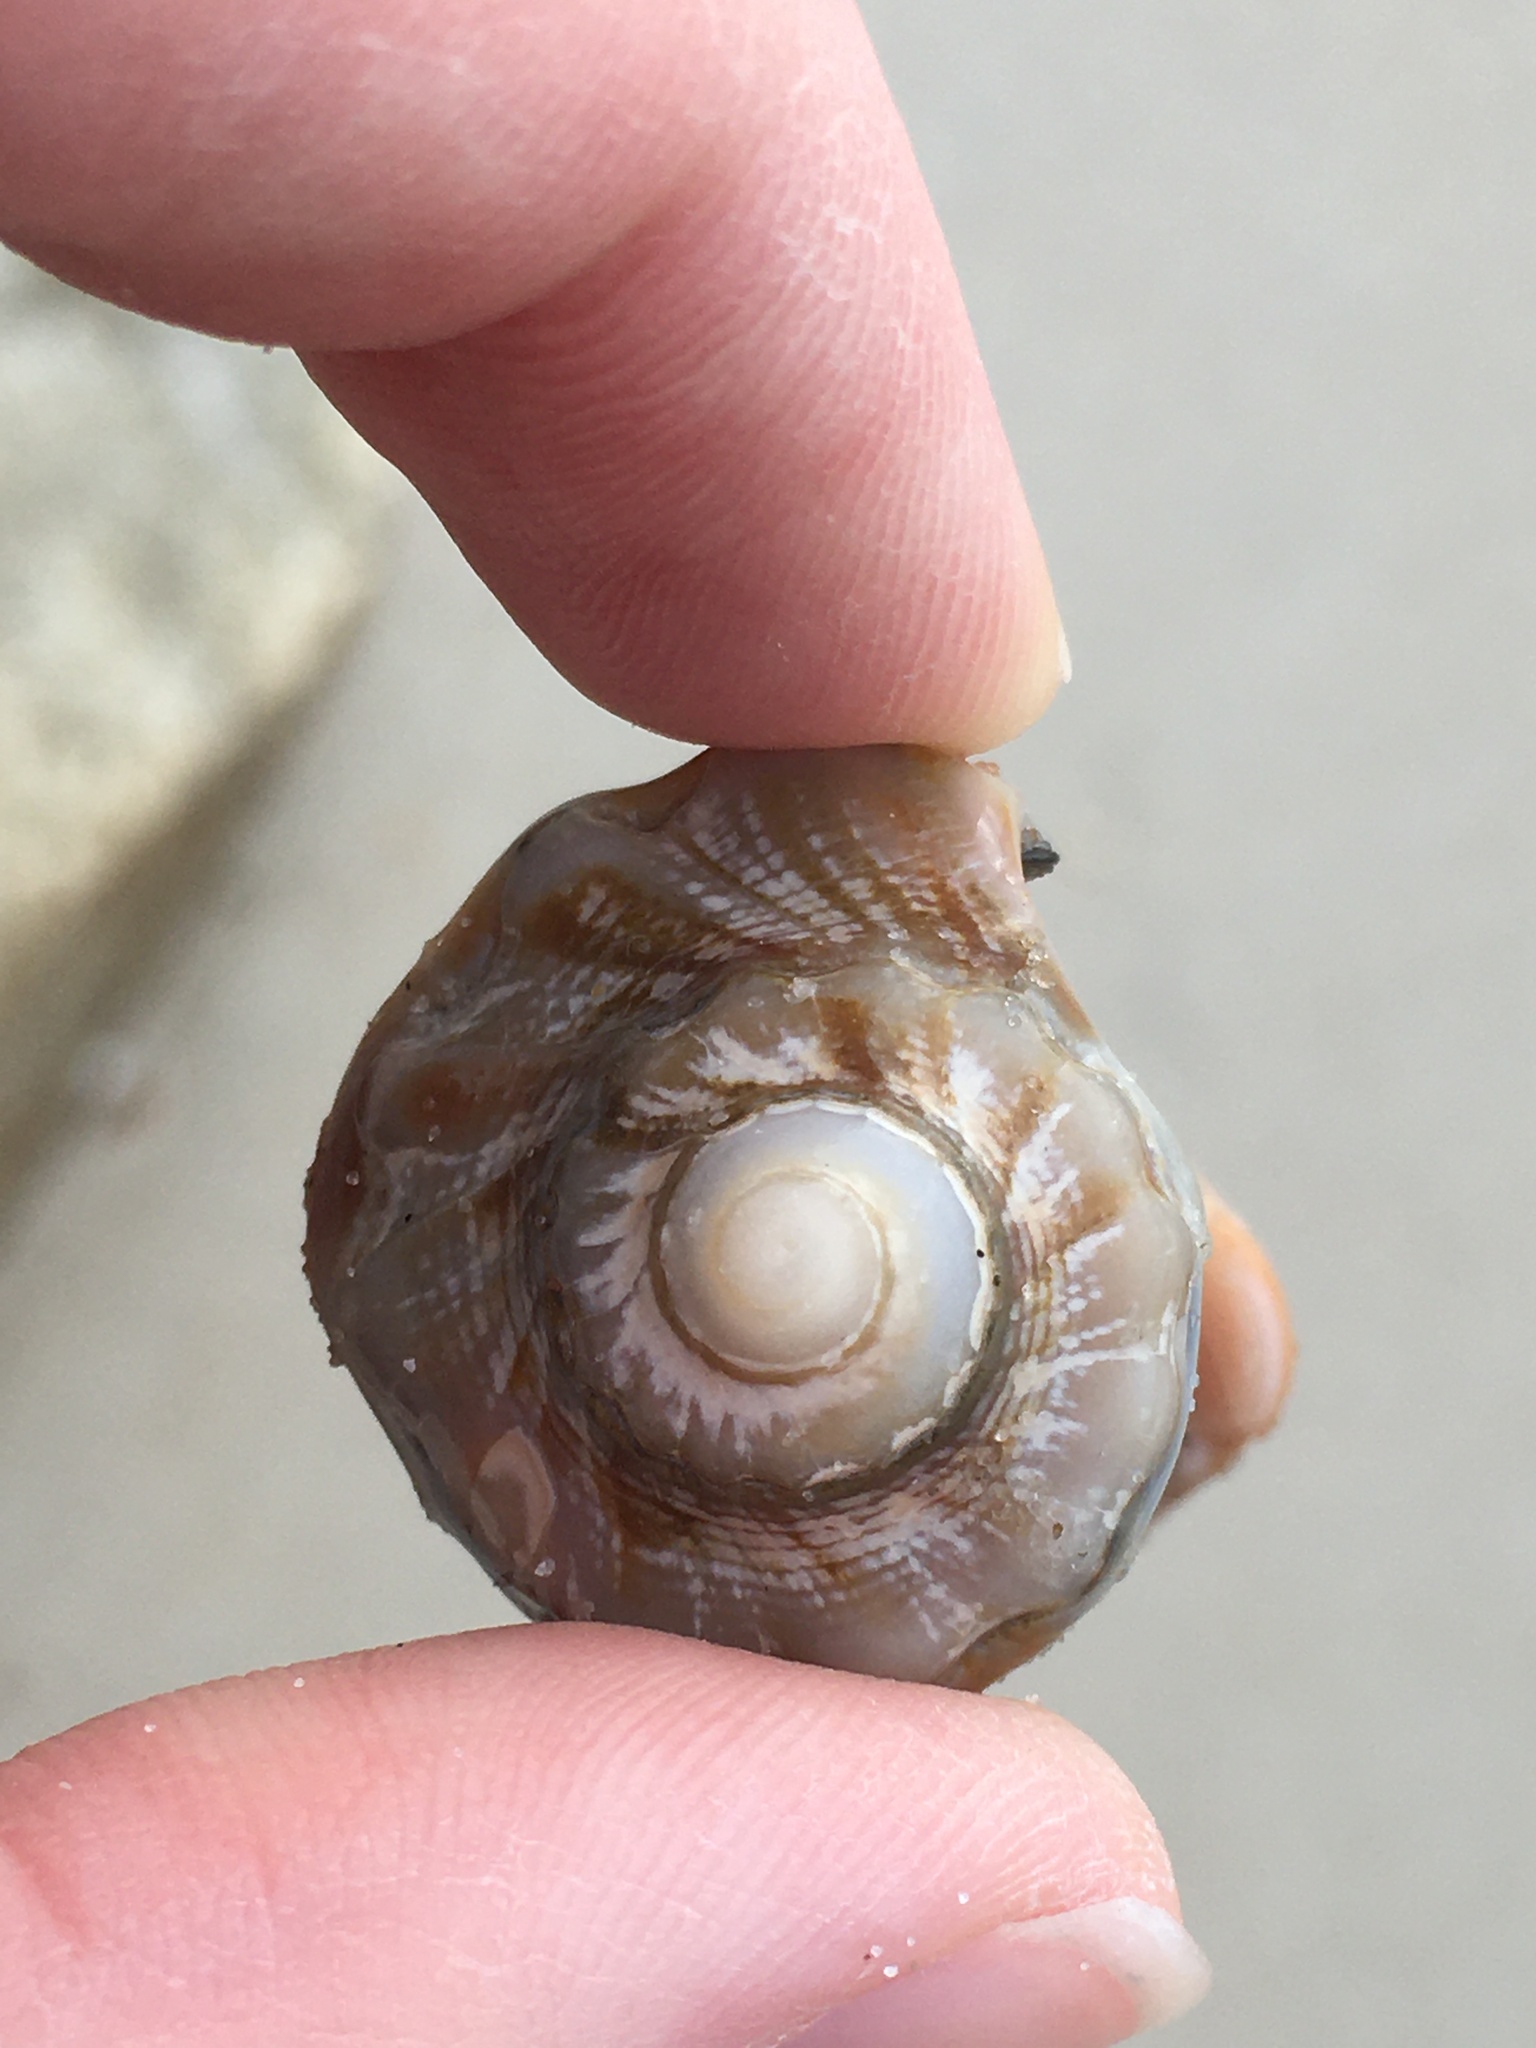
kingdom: Animalia
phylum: Mollusca
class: Gastropoda
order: Neogastropoda
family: Busyconidae
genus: Busycon
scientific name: Busycon carica
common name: Knobbed whelk
